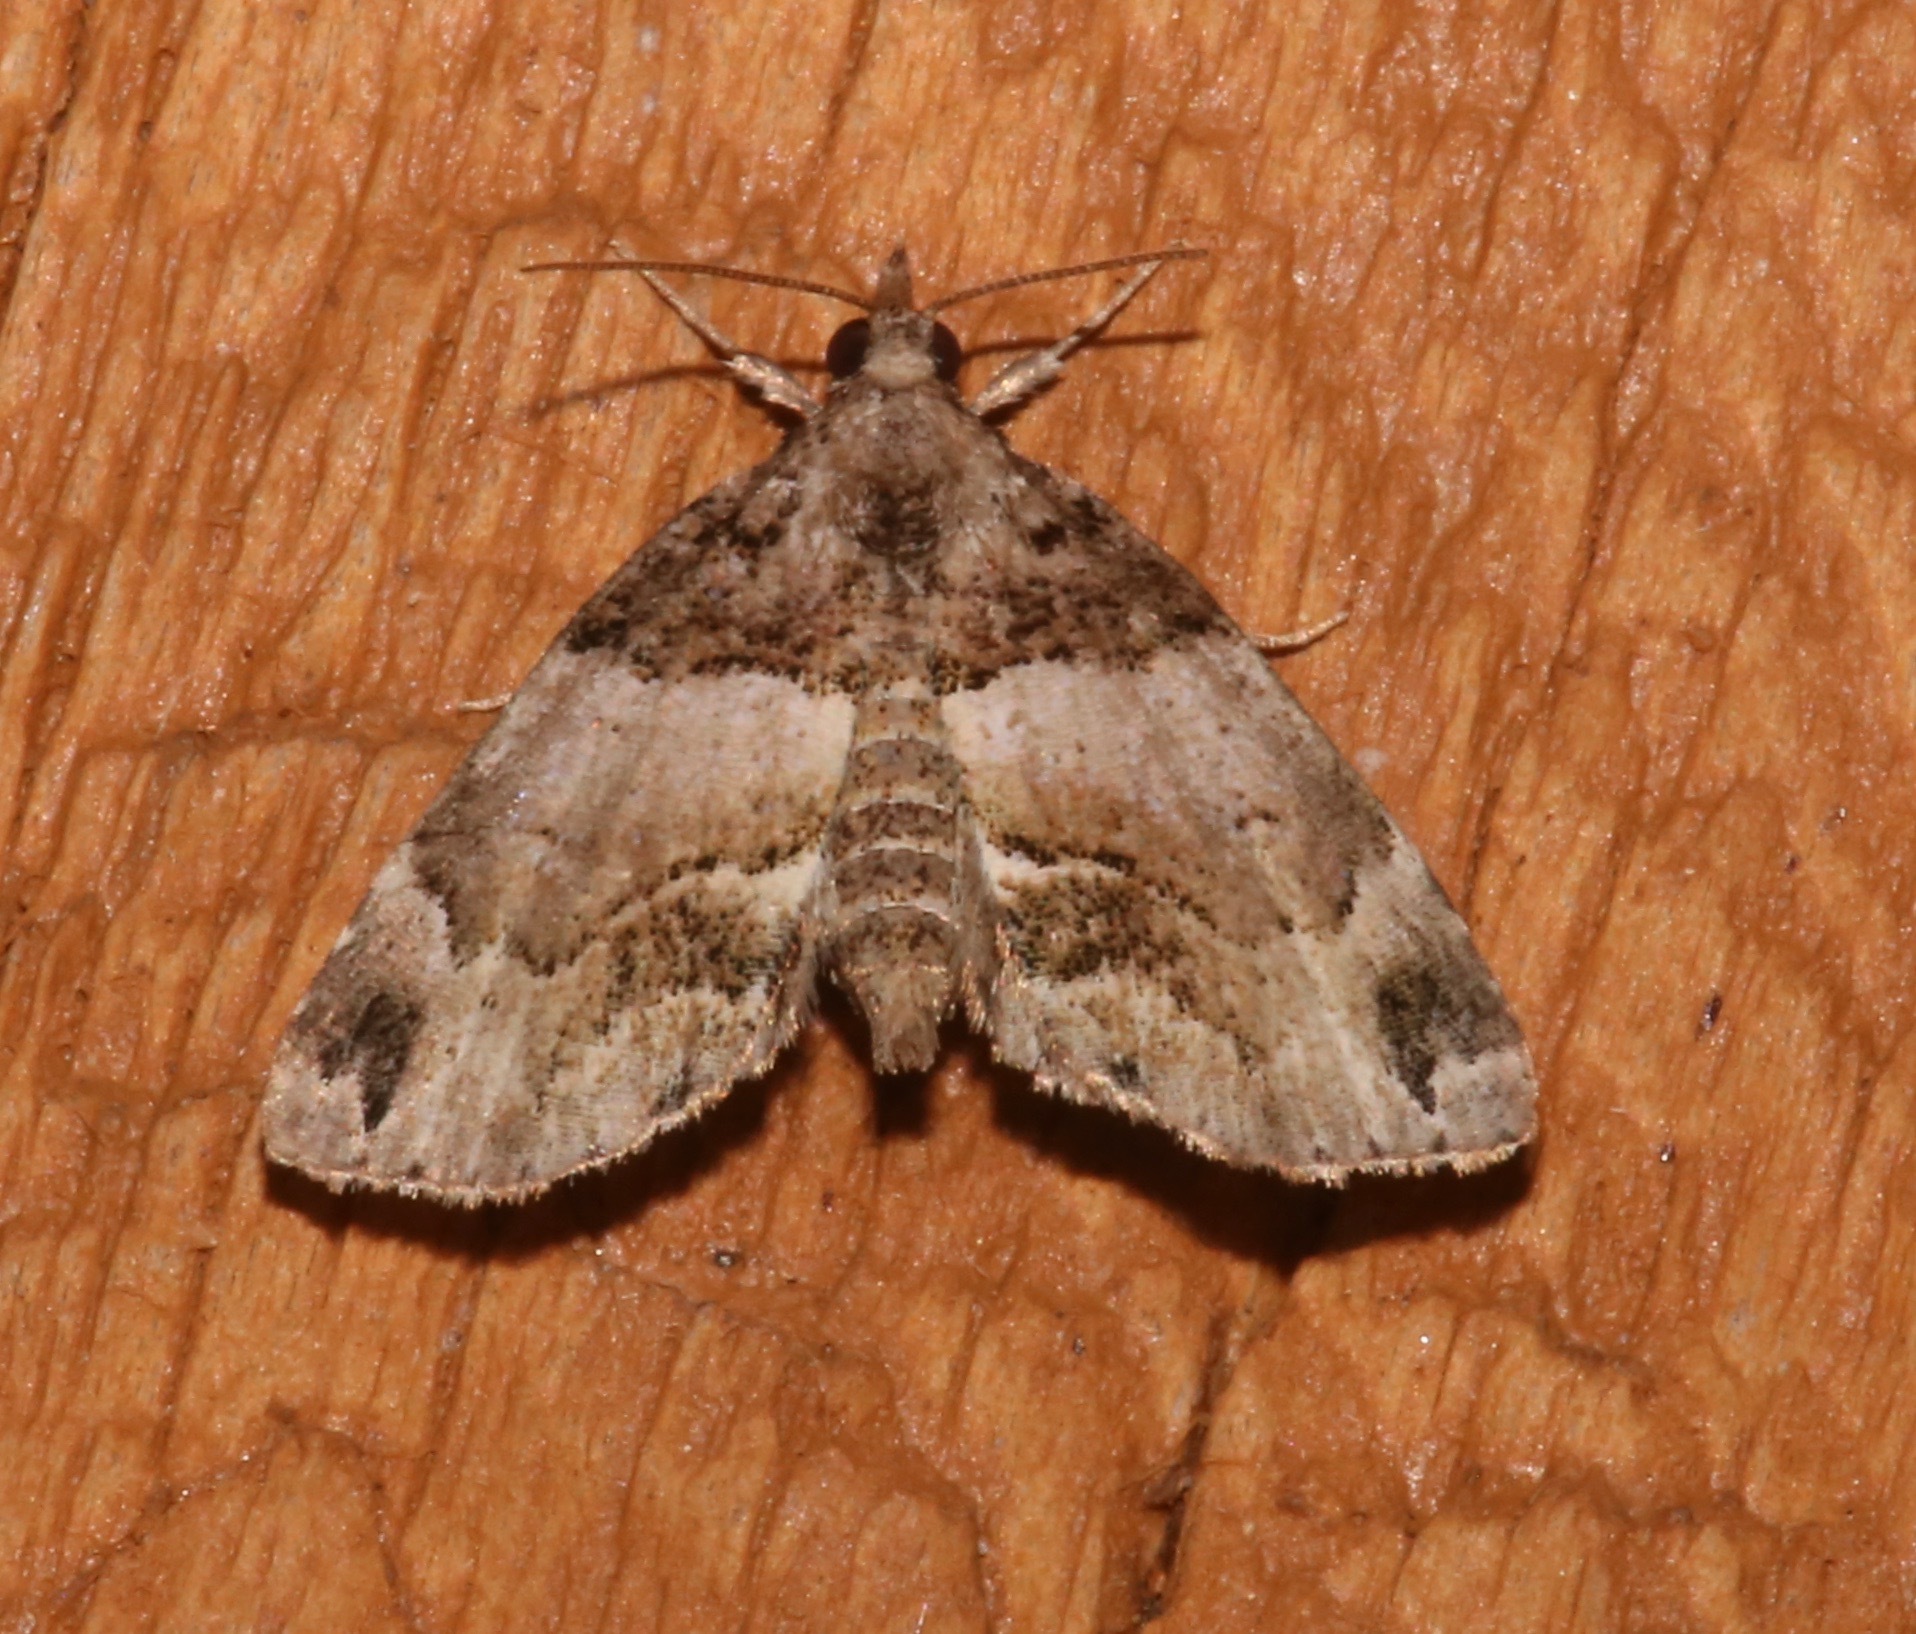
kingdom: Animalia
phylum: Arthropoda
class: Insecta
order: Lepidoptera
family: Erebidae
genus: Cutina
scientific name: Cutina distincta
